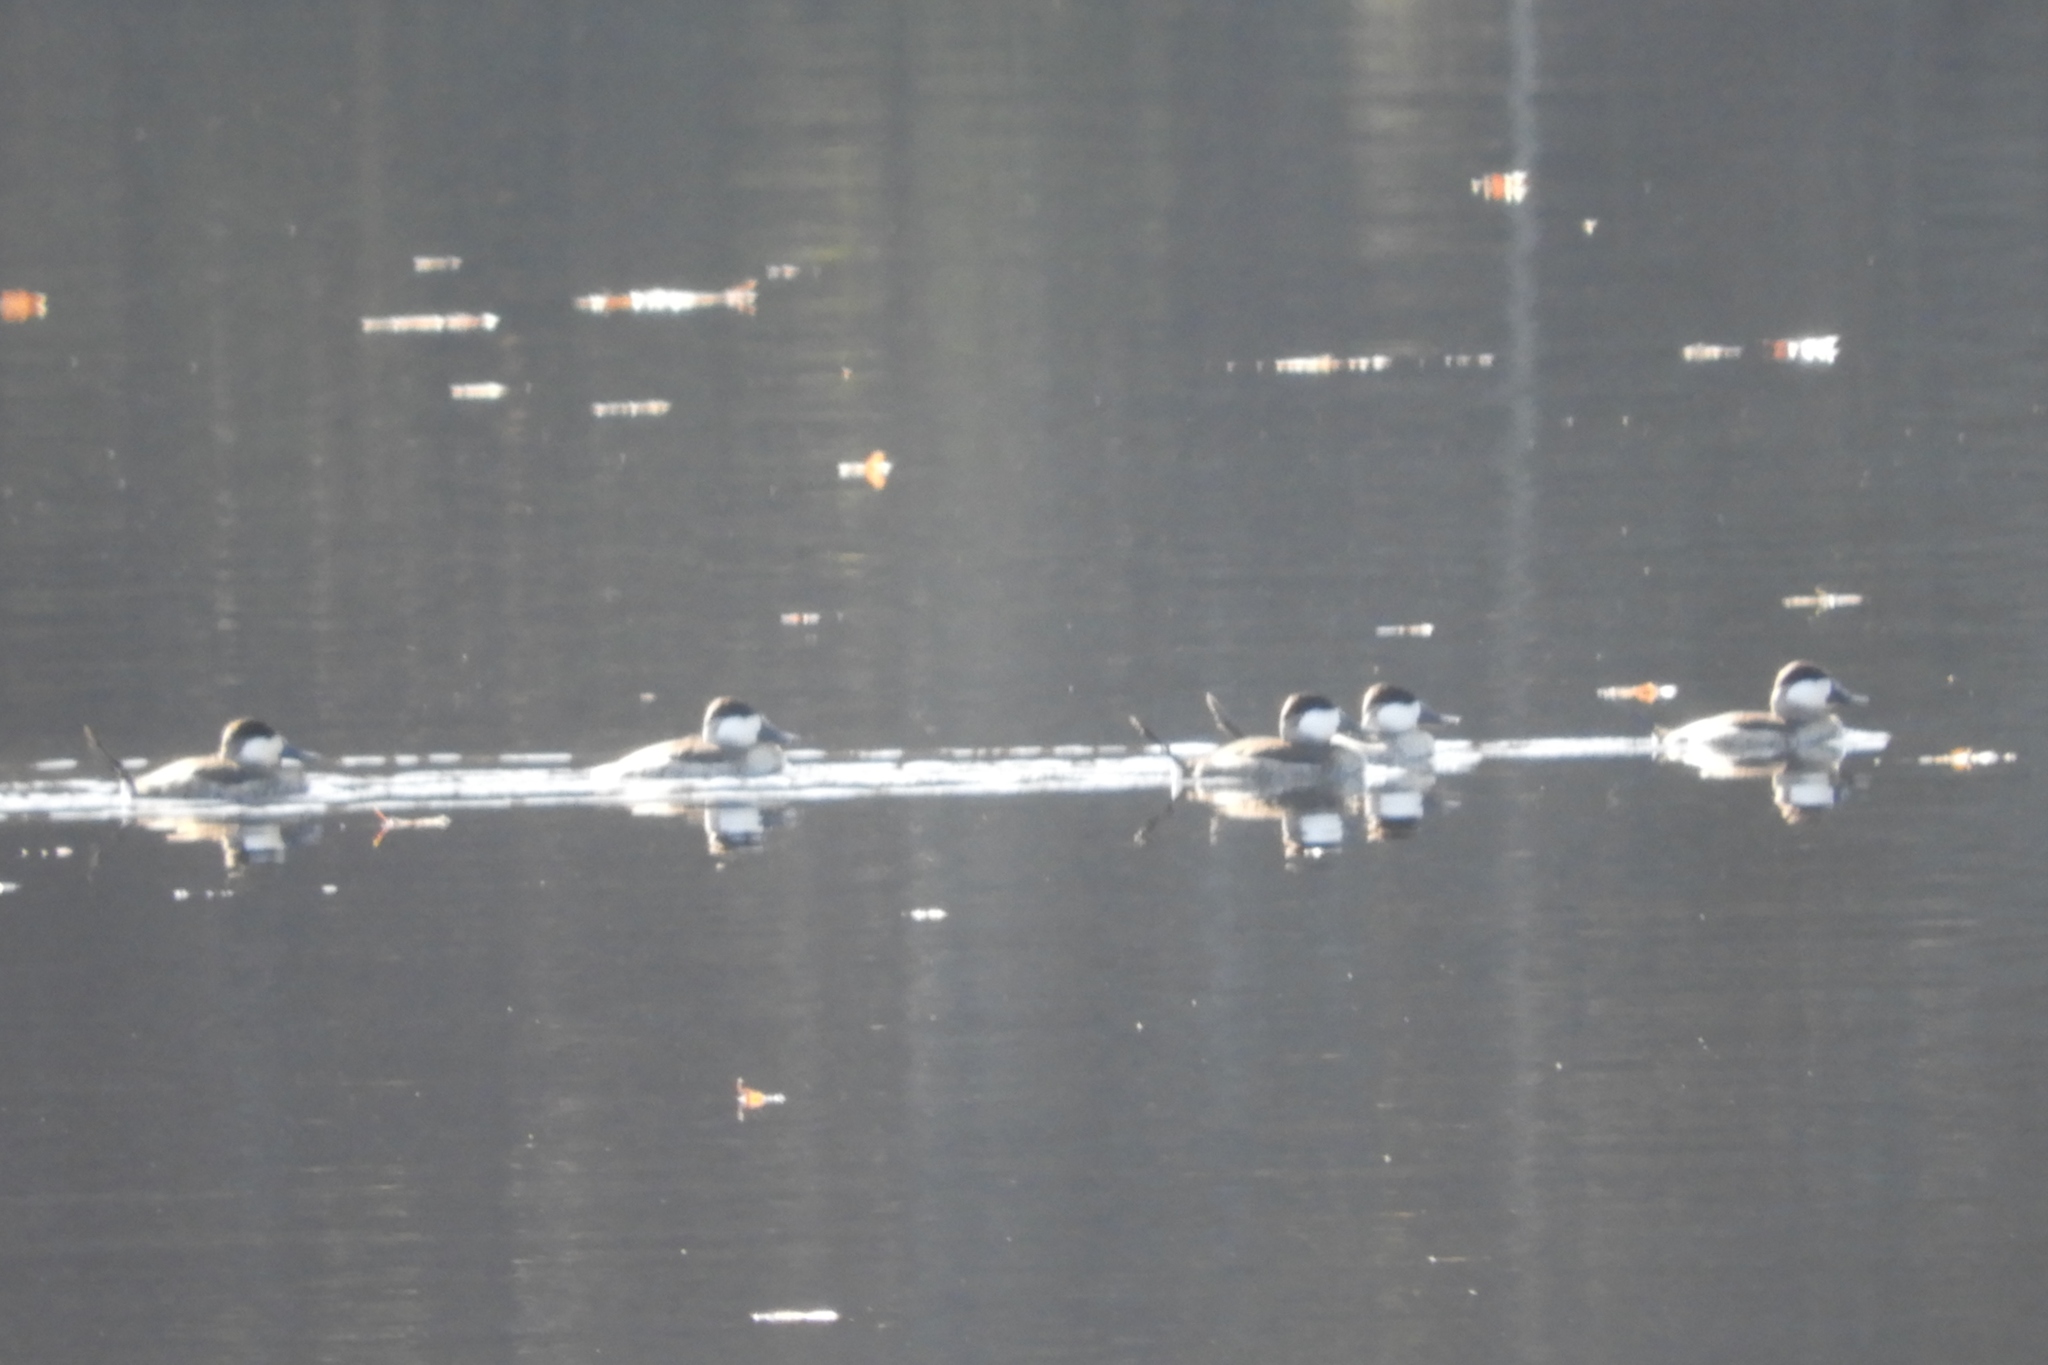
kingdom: Animalia
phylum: Chordata
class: Aves
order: Anseriformes
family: Anatidae
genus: Oxyura
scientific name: Oxyura jamaicensis
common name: Ruddy duck
